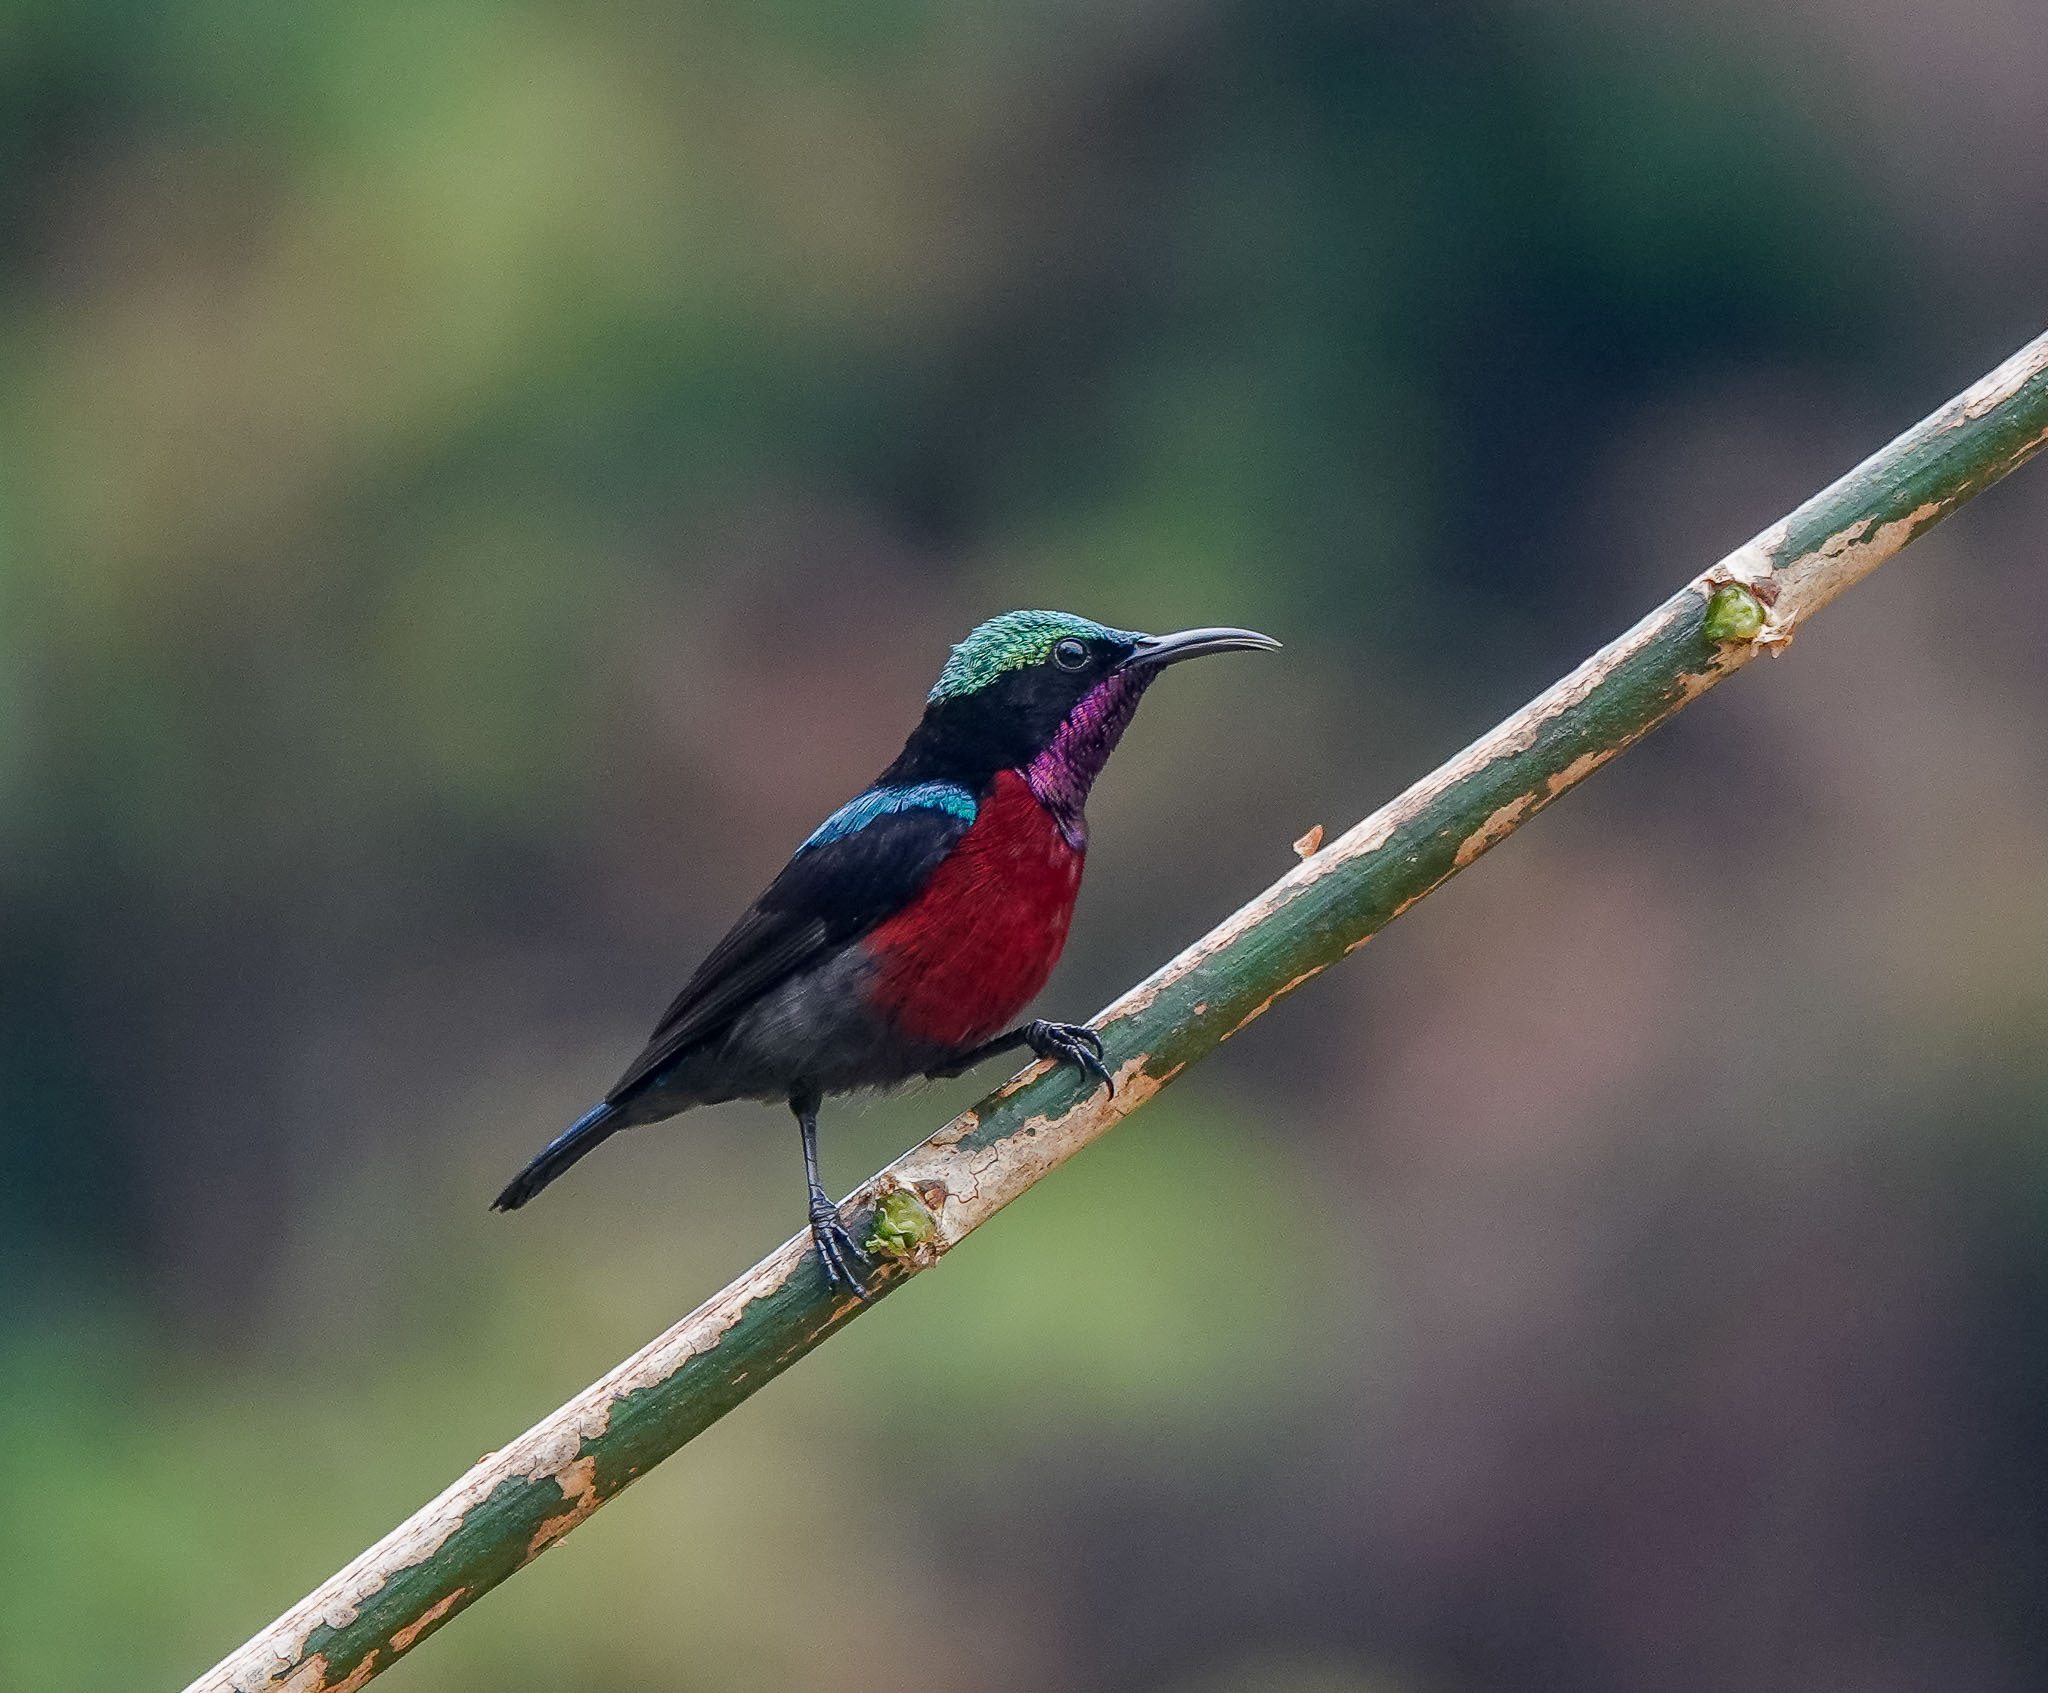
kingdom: Animalia
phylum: Chordata
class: Aves
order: Passeriformes
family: Nectariniidae
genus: Leptocoma
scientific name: Leptocoma brasiliana
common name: Van hasselt's sunbird
